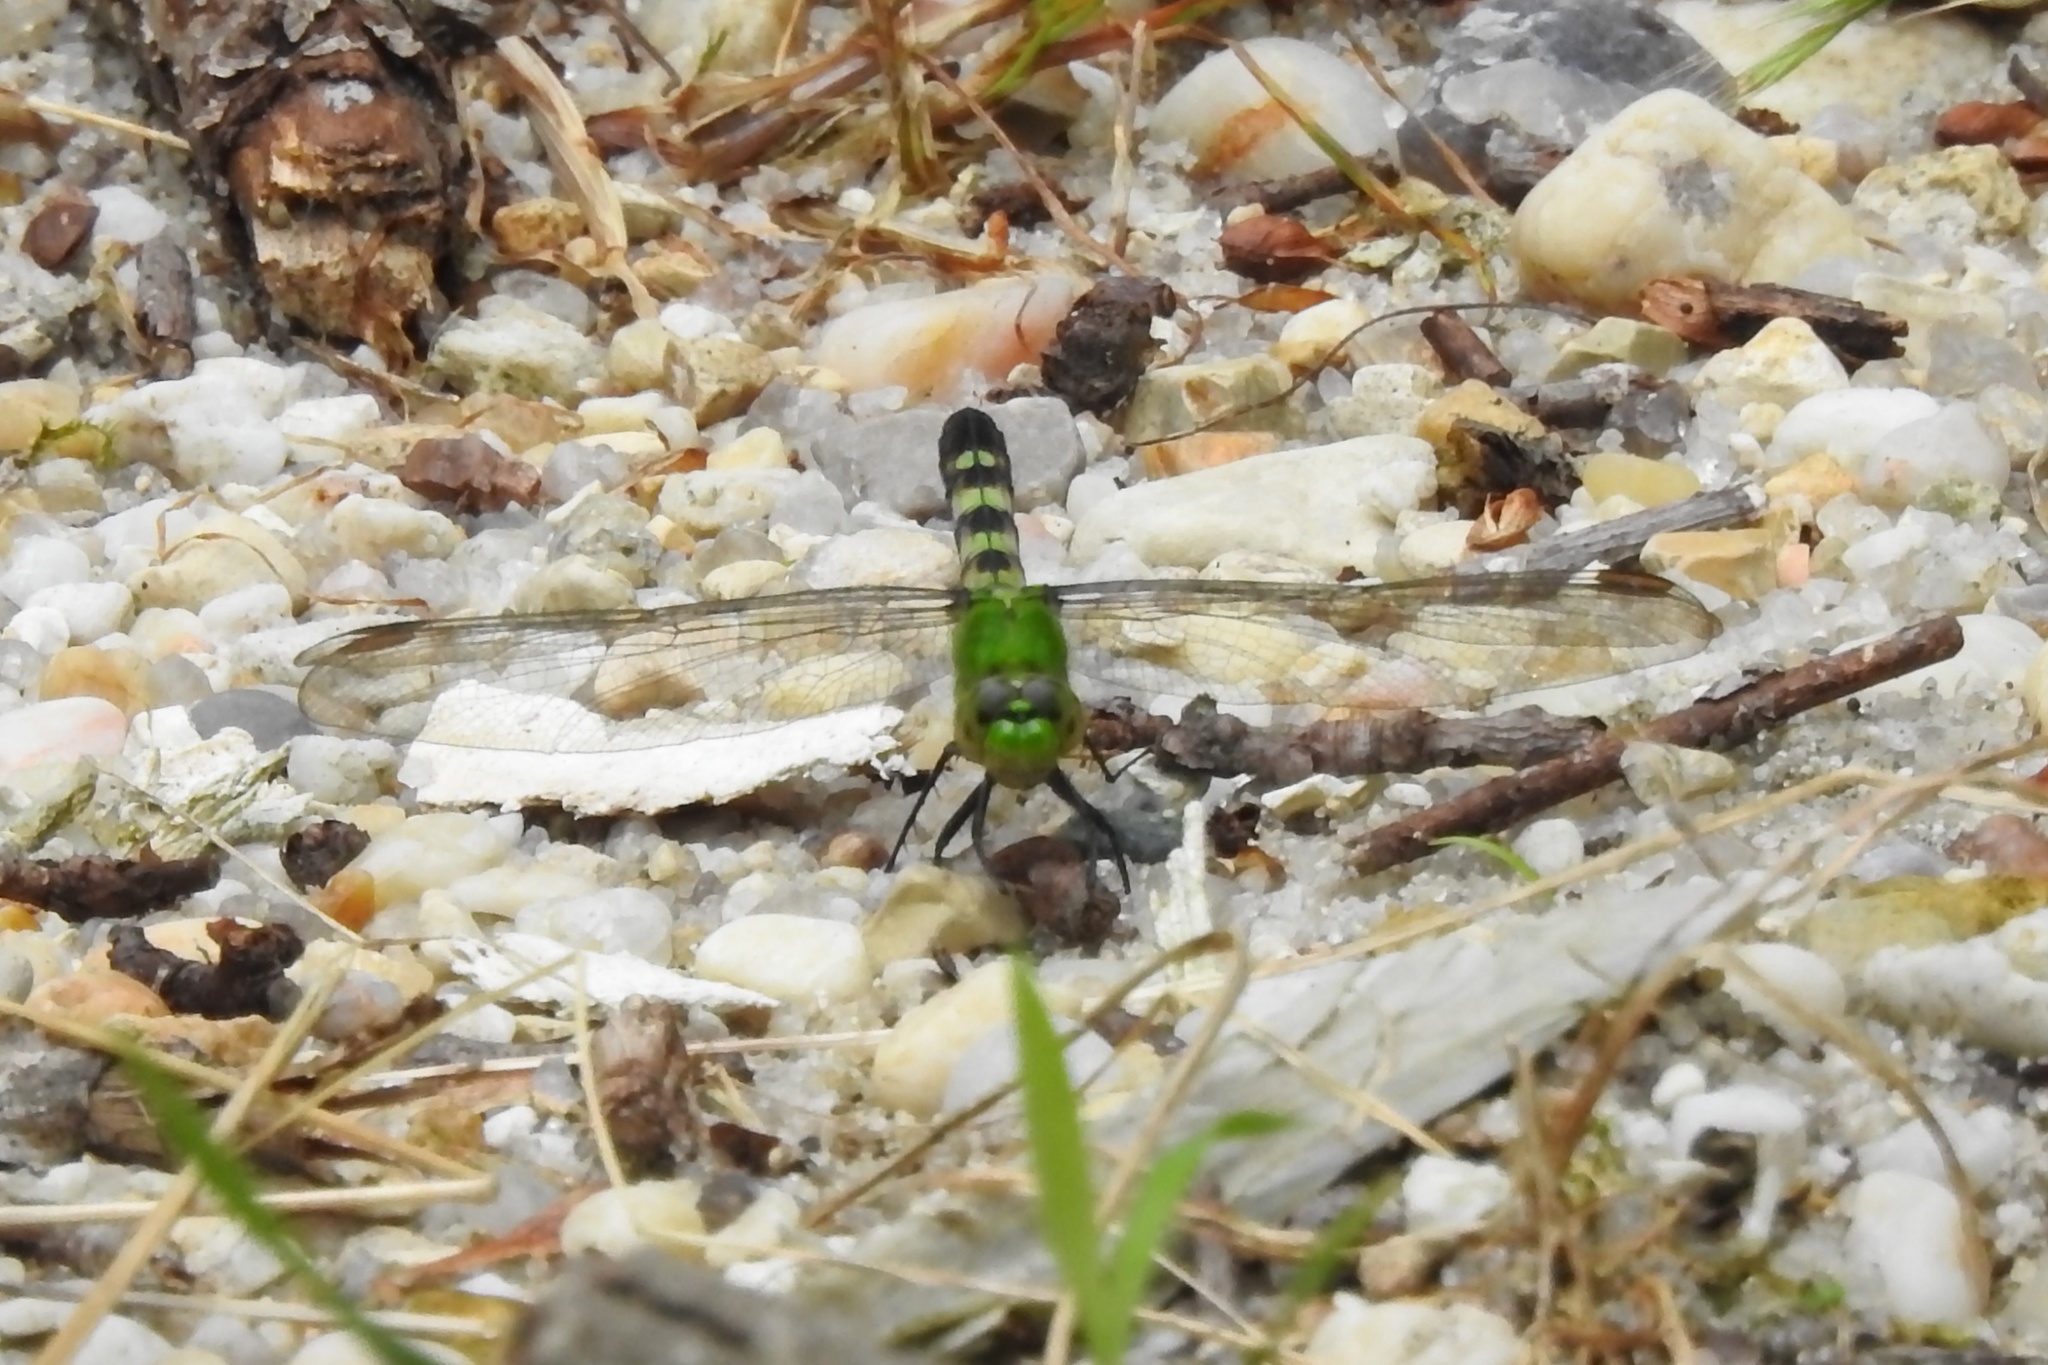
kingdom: Animalia
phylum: Arthropoda
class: Insecta
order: Odonata
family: Libellulidae
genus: Erythemis
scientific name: Erythemis simplicicollis
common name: Eastern pondhawk
